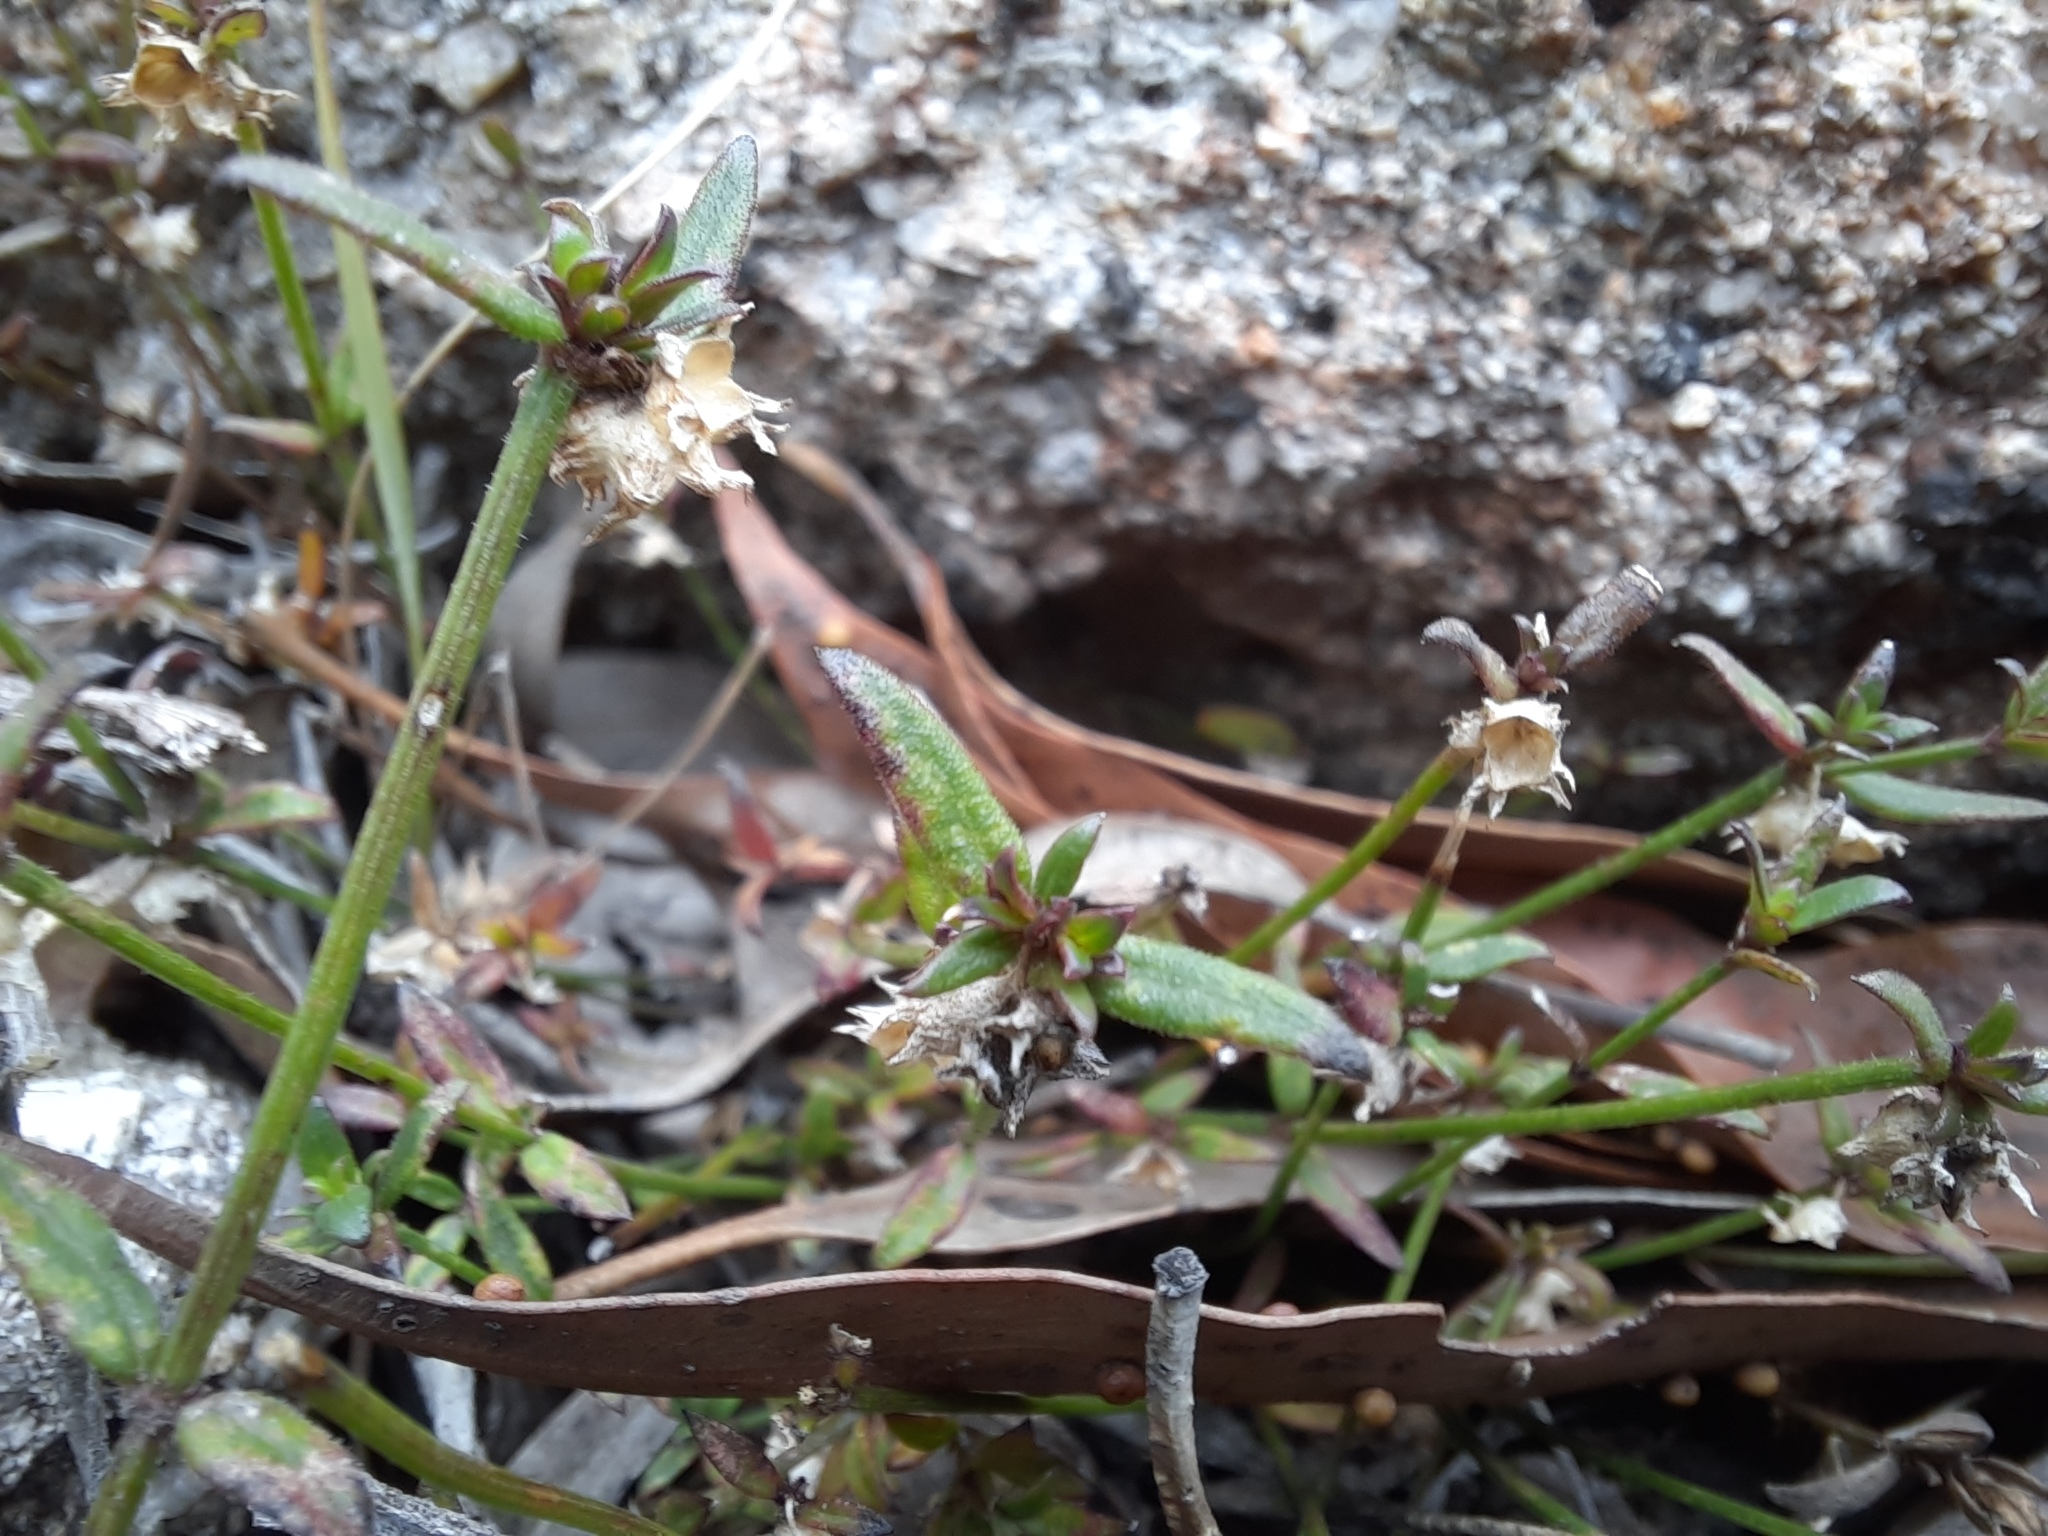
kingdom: Plantae
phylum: Tracheophyta
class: Magnoliopsida
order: Gentianales
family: Rubiaceae
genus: Opercularia
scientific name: Opercularia varia
